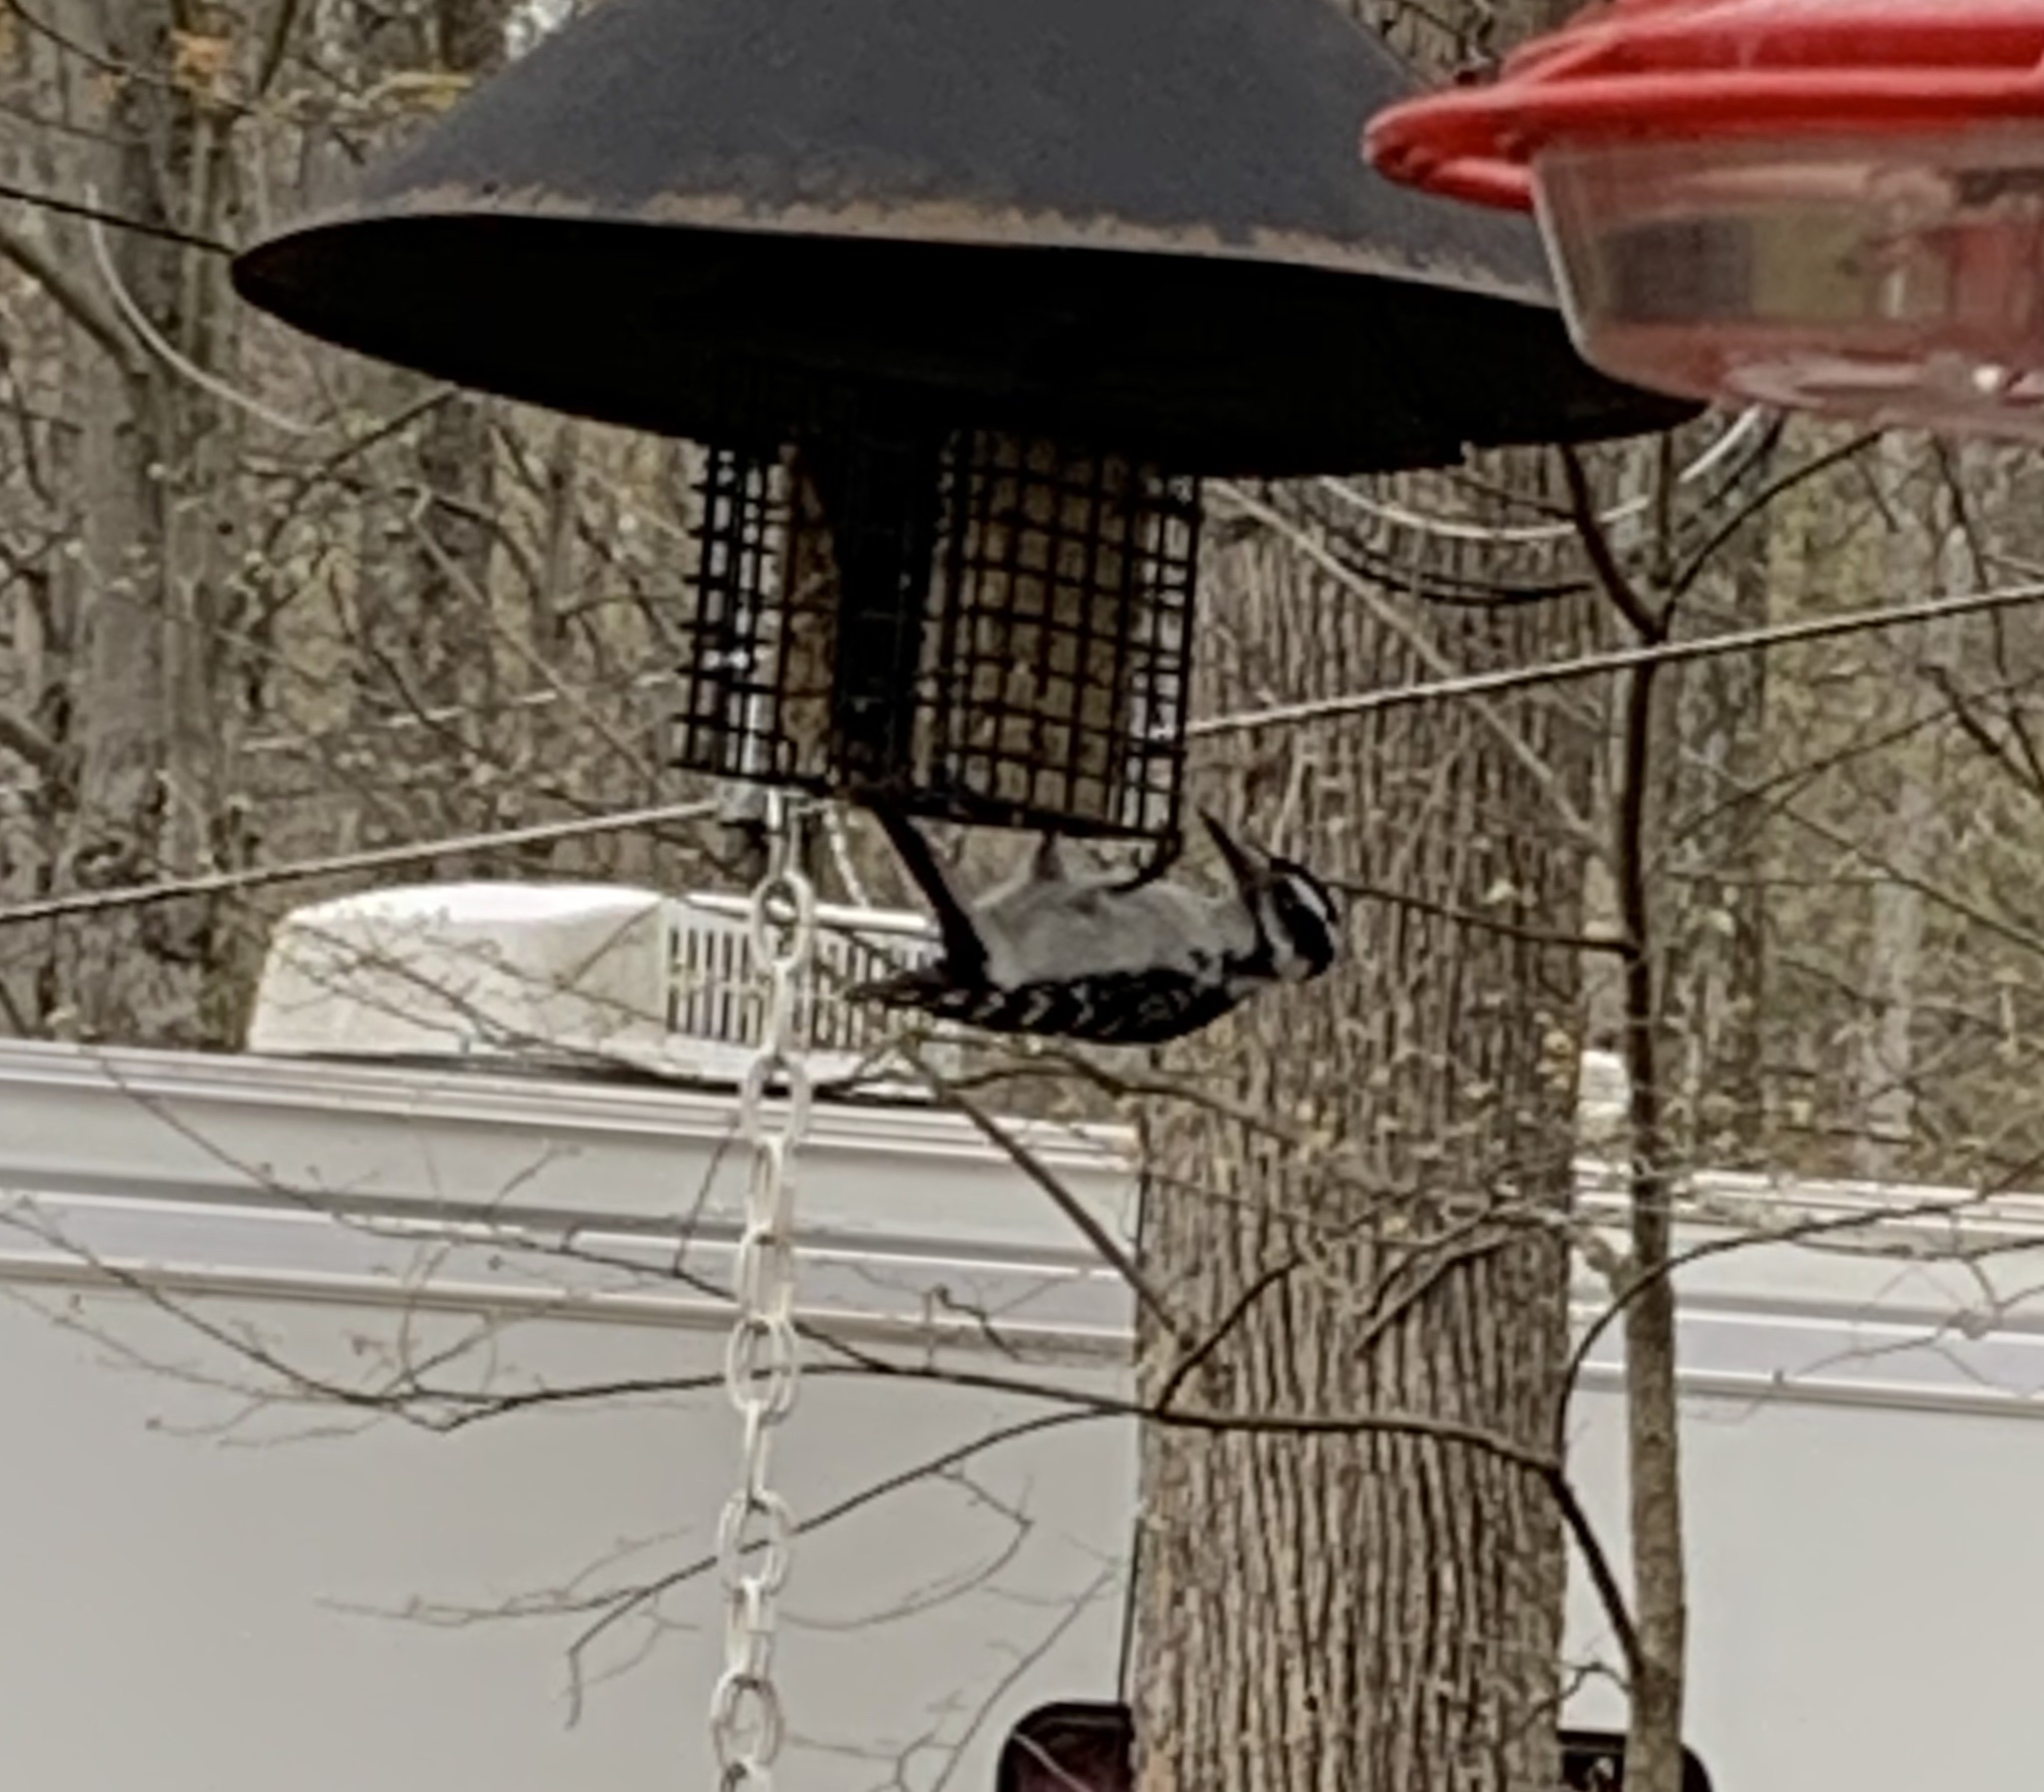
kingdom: Animalia
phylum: Chordata
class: Aves
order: Piciformes
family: Picidae
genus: Leuconotopicus
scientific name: Leuconotopicus villosus
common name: Hairy woodpecker
